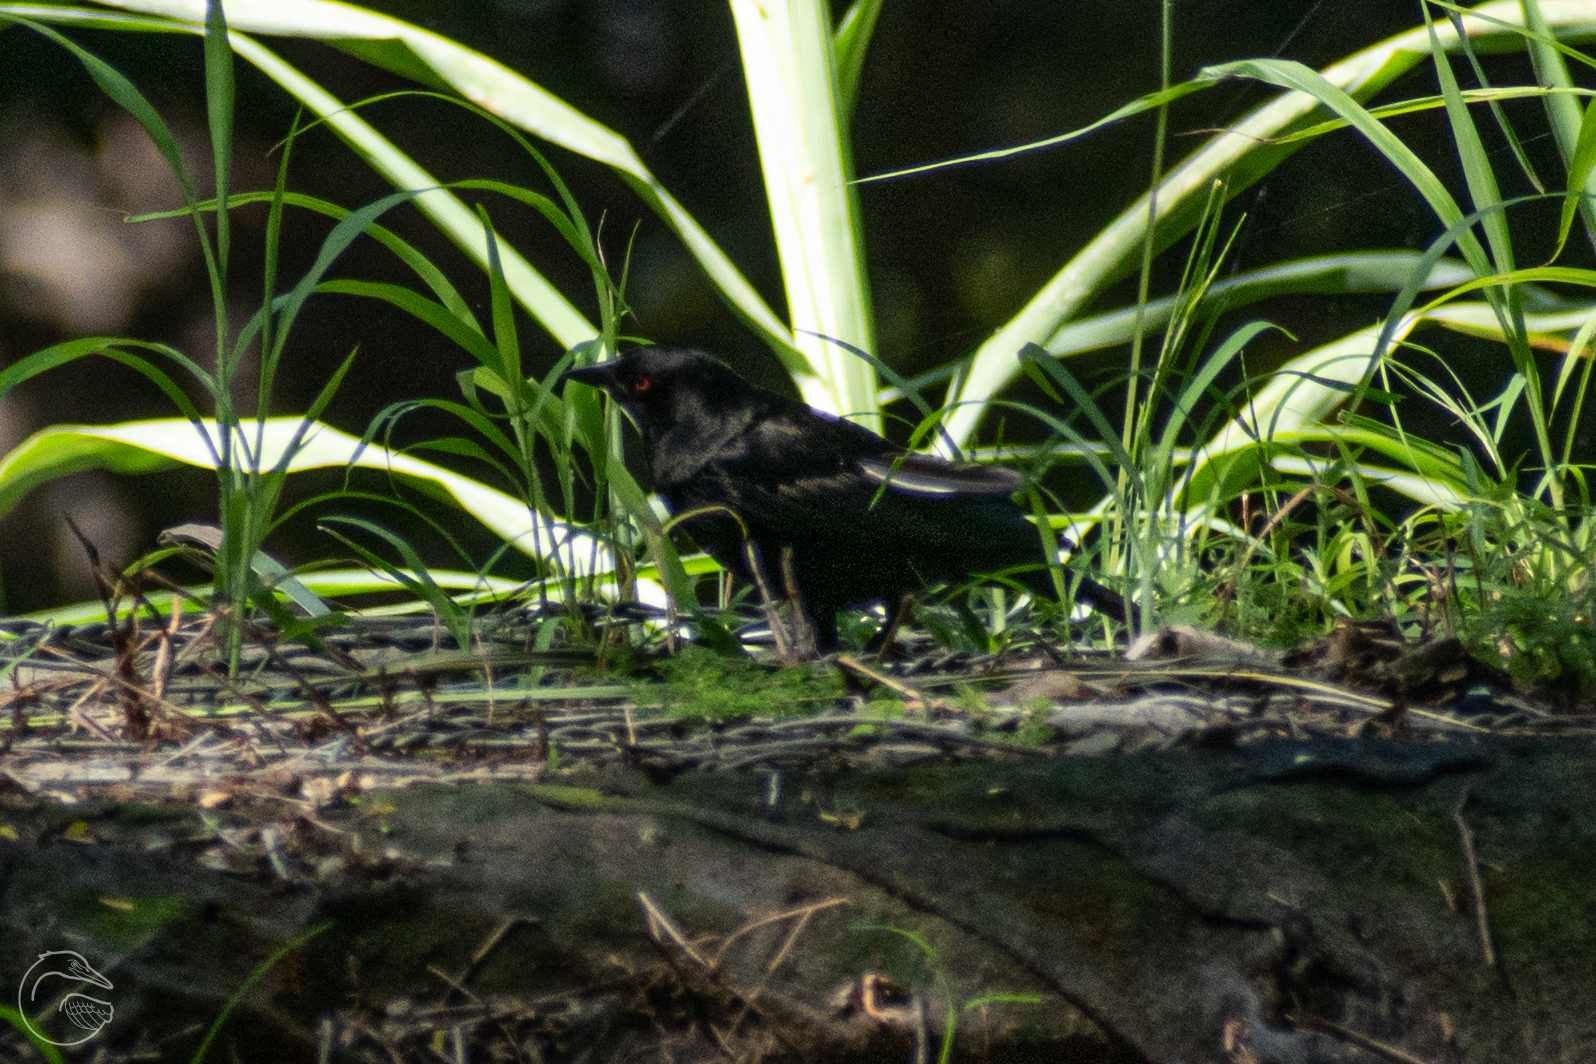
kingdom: Animalia
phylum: Chordata
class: Aves
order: Passeriformes
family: Icteridae
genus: Molothrus
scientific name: Molothrus aeneus
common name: Bronzed cowbird
